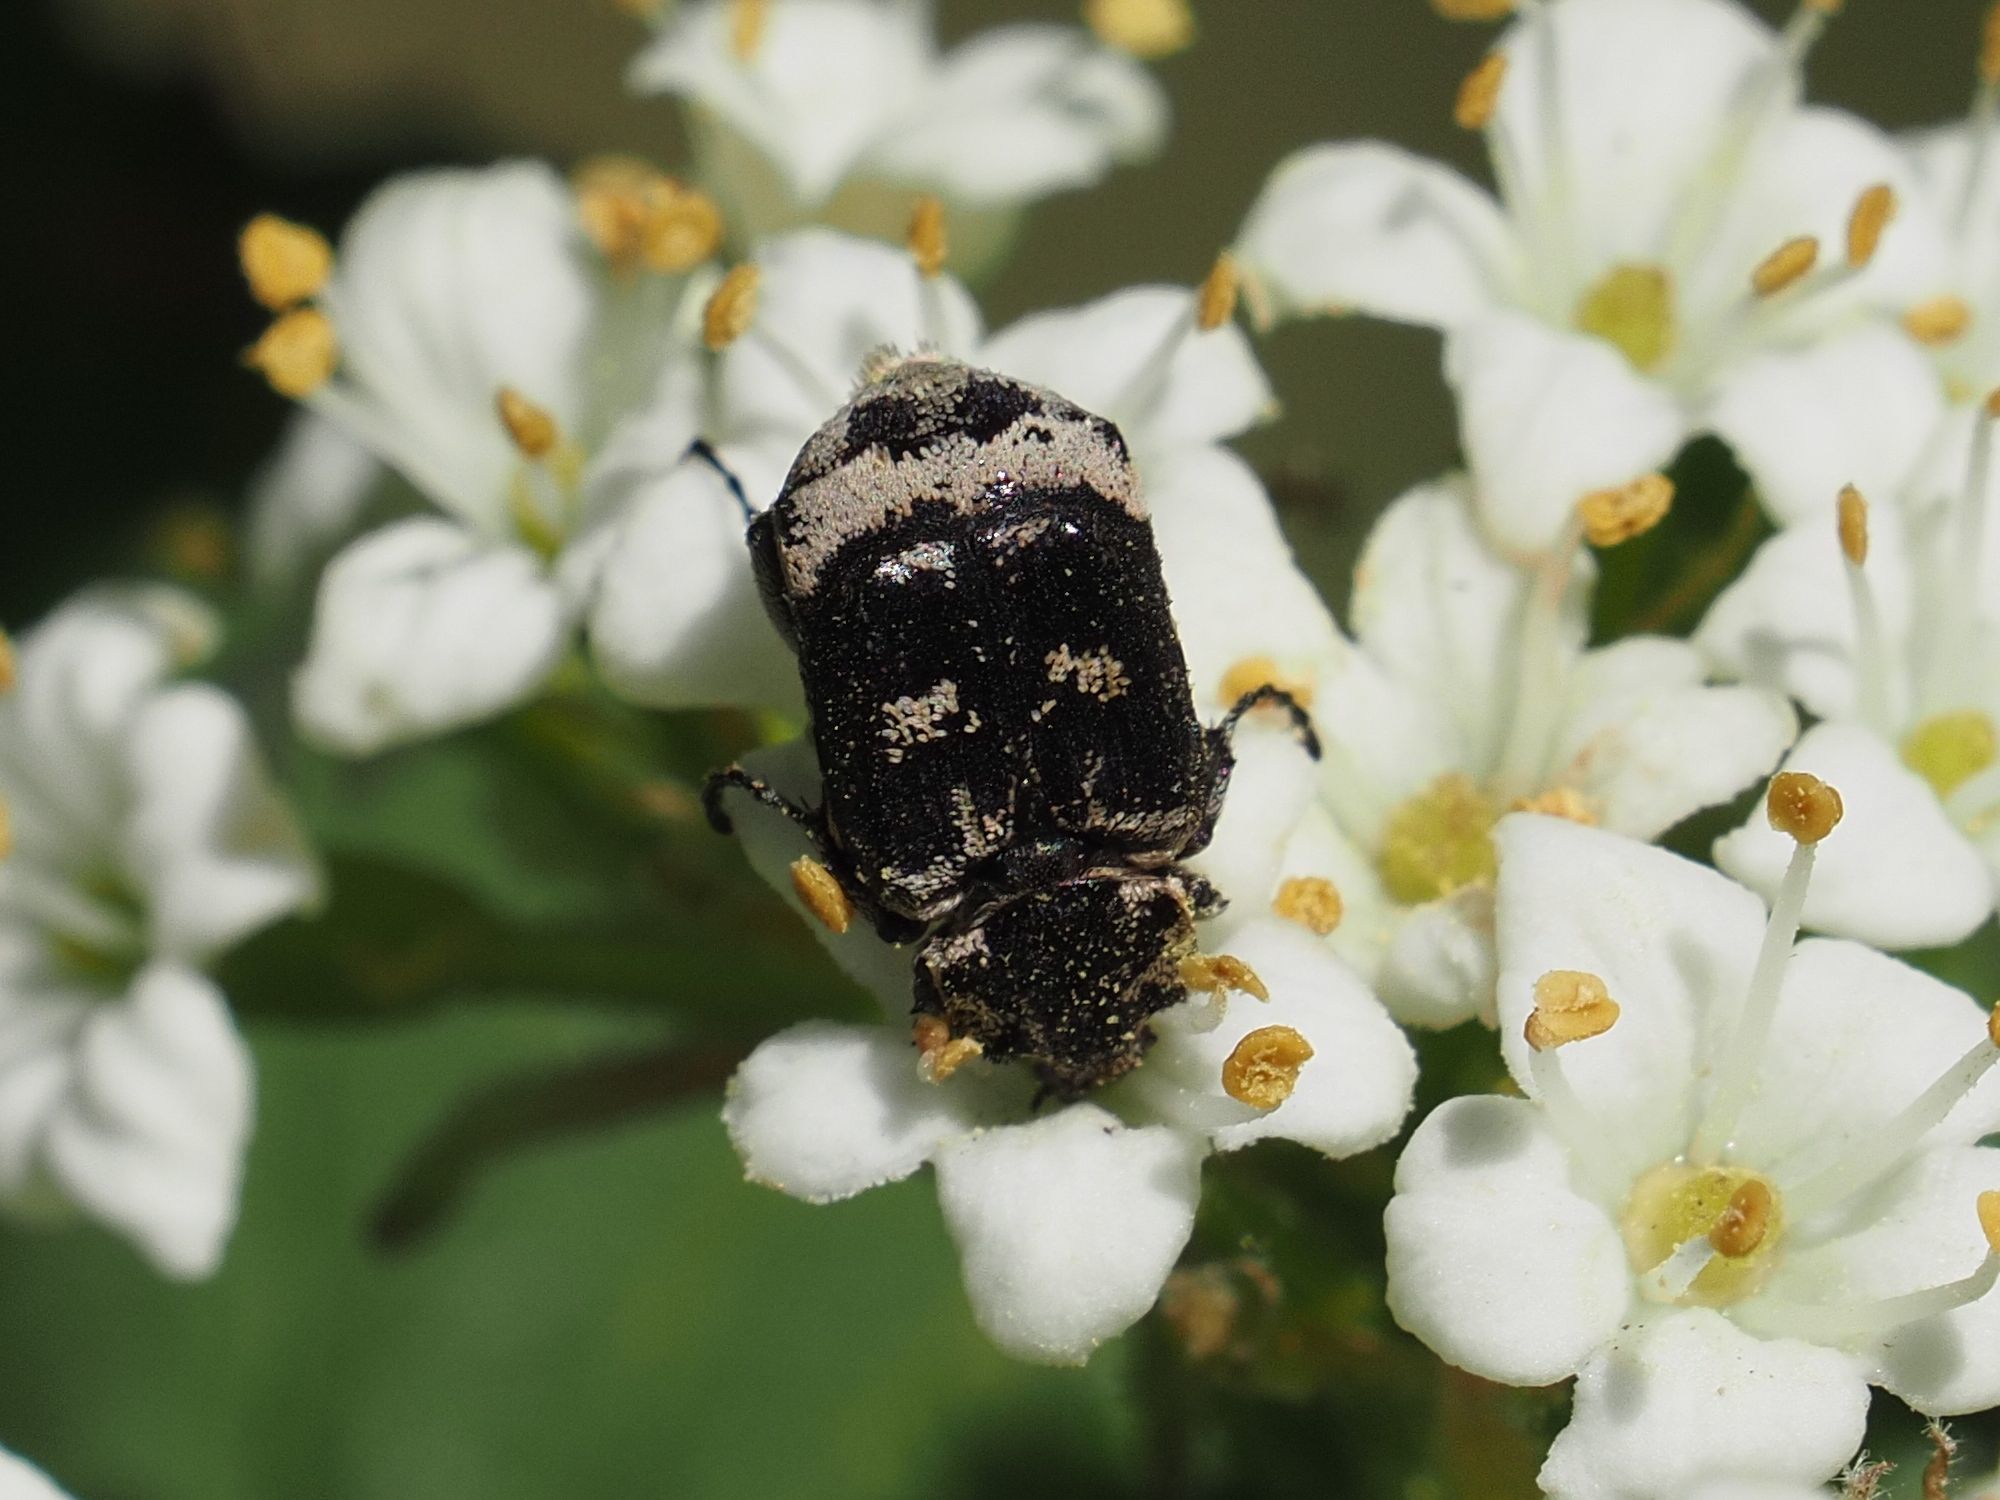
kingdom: Animalia
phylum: Arthropoda
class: Insecta
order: Coleoptera
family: Scarabaeidae
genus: Valgus
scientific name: Valgus hemipterus
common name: Bug flower chafer
